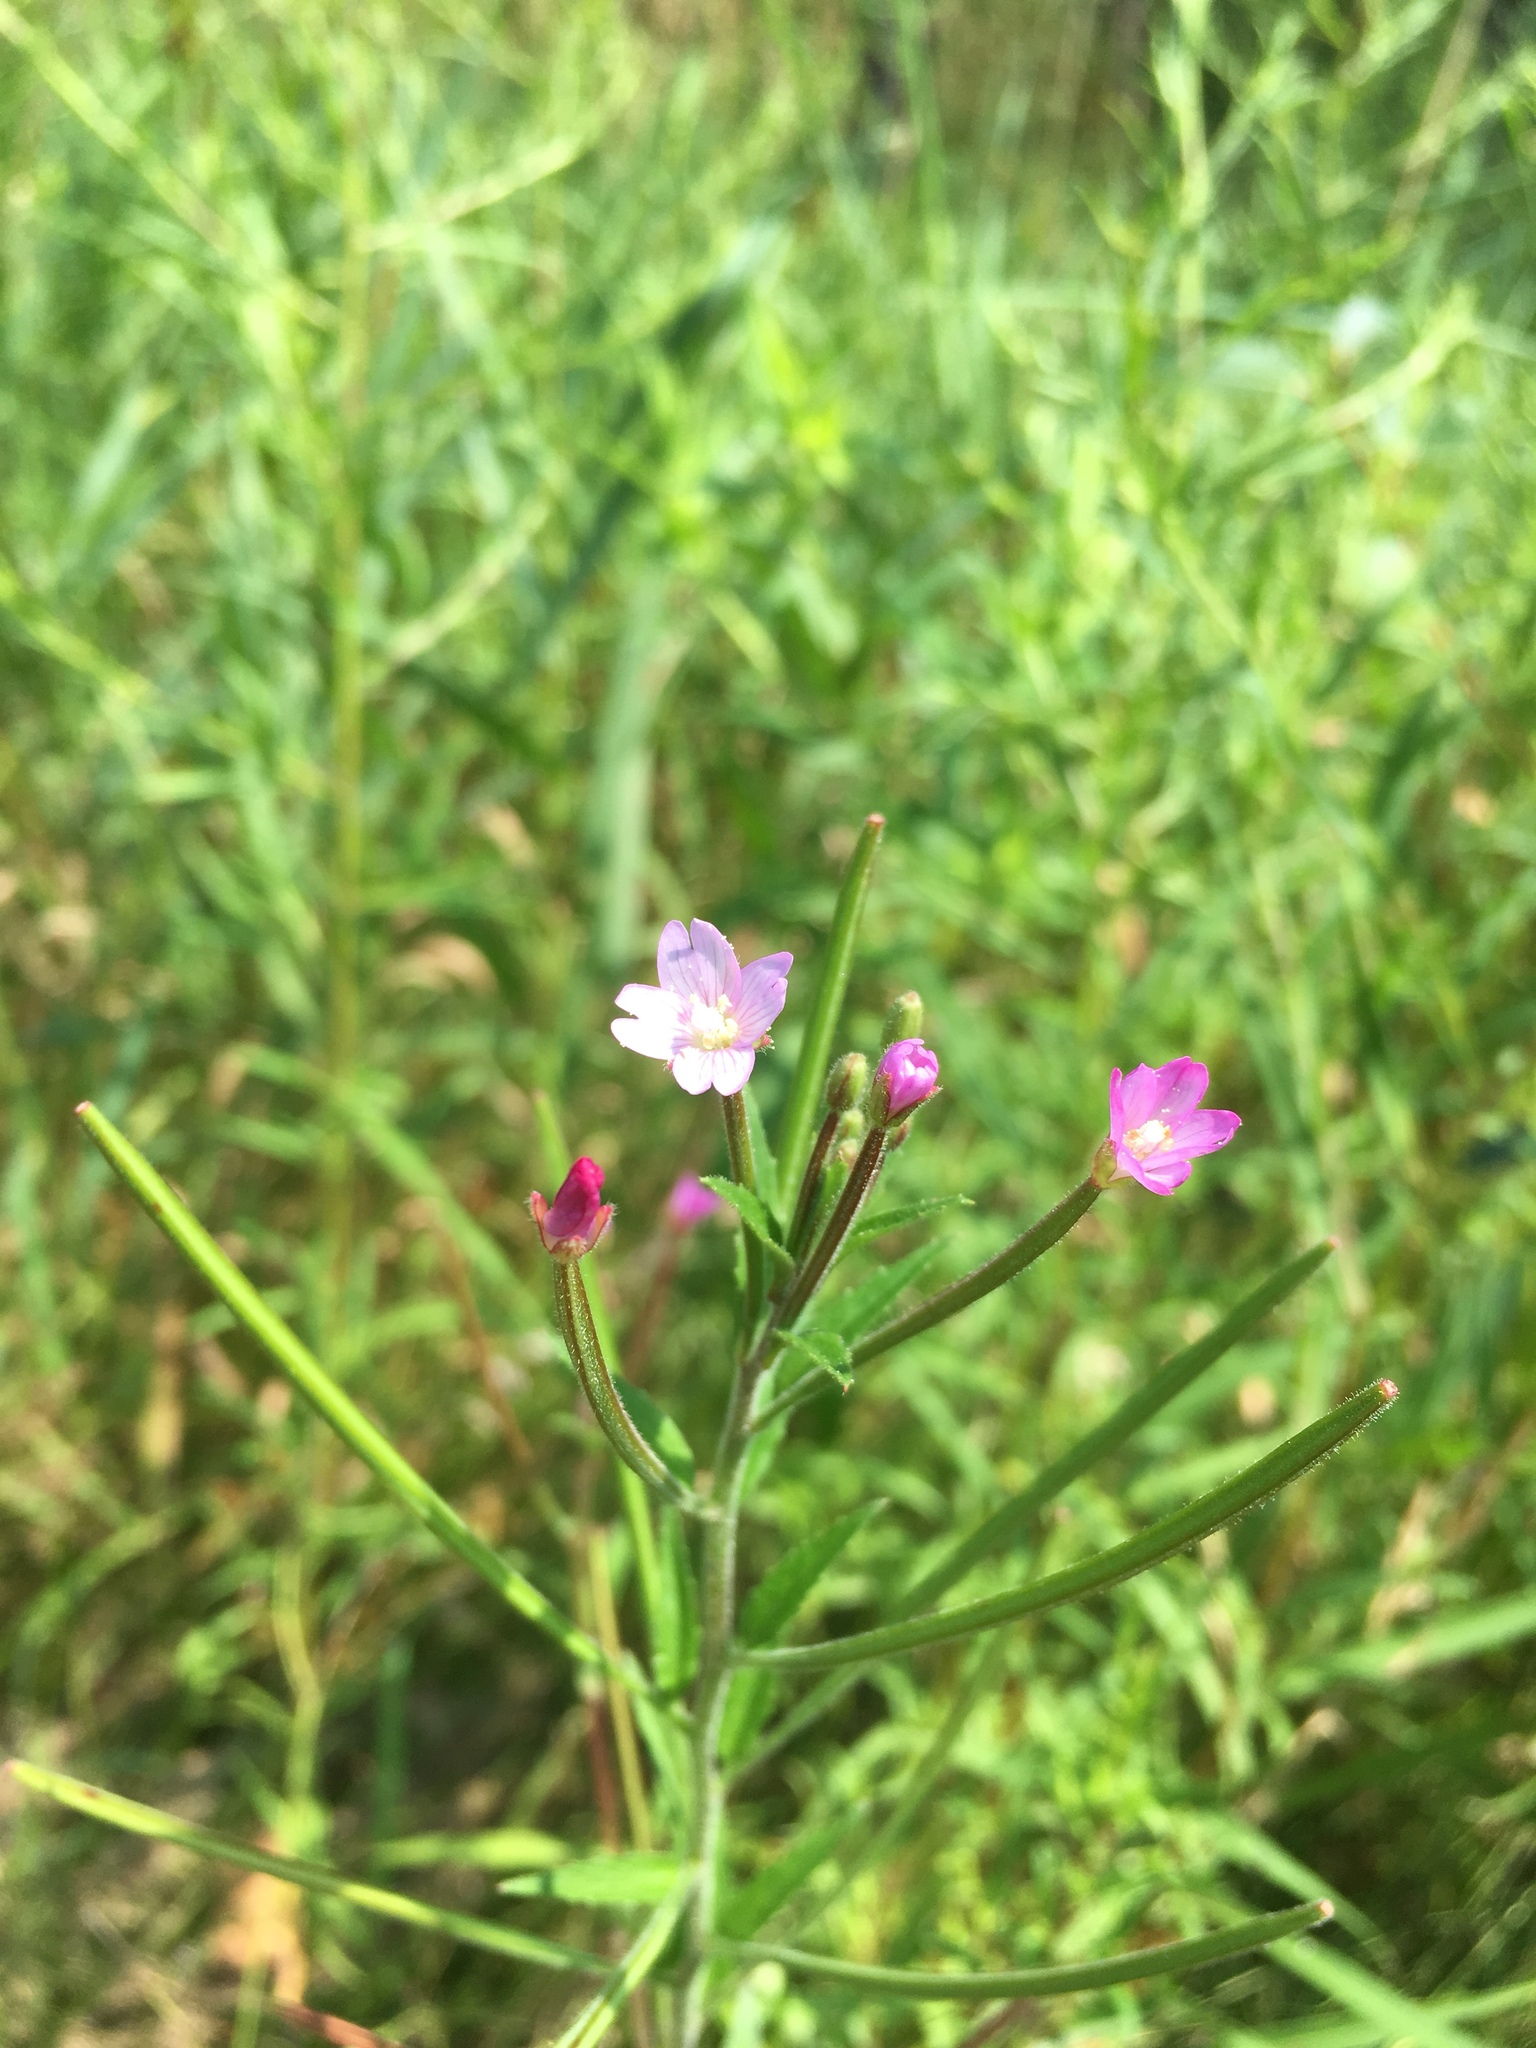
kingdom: Plantae
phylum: Tracheophyta
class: Magnoliopsida
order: Myrtales
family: Onagraceae
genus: Epilobium
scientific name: Epilobium parviflorum
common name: Hoary willowherb
